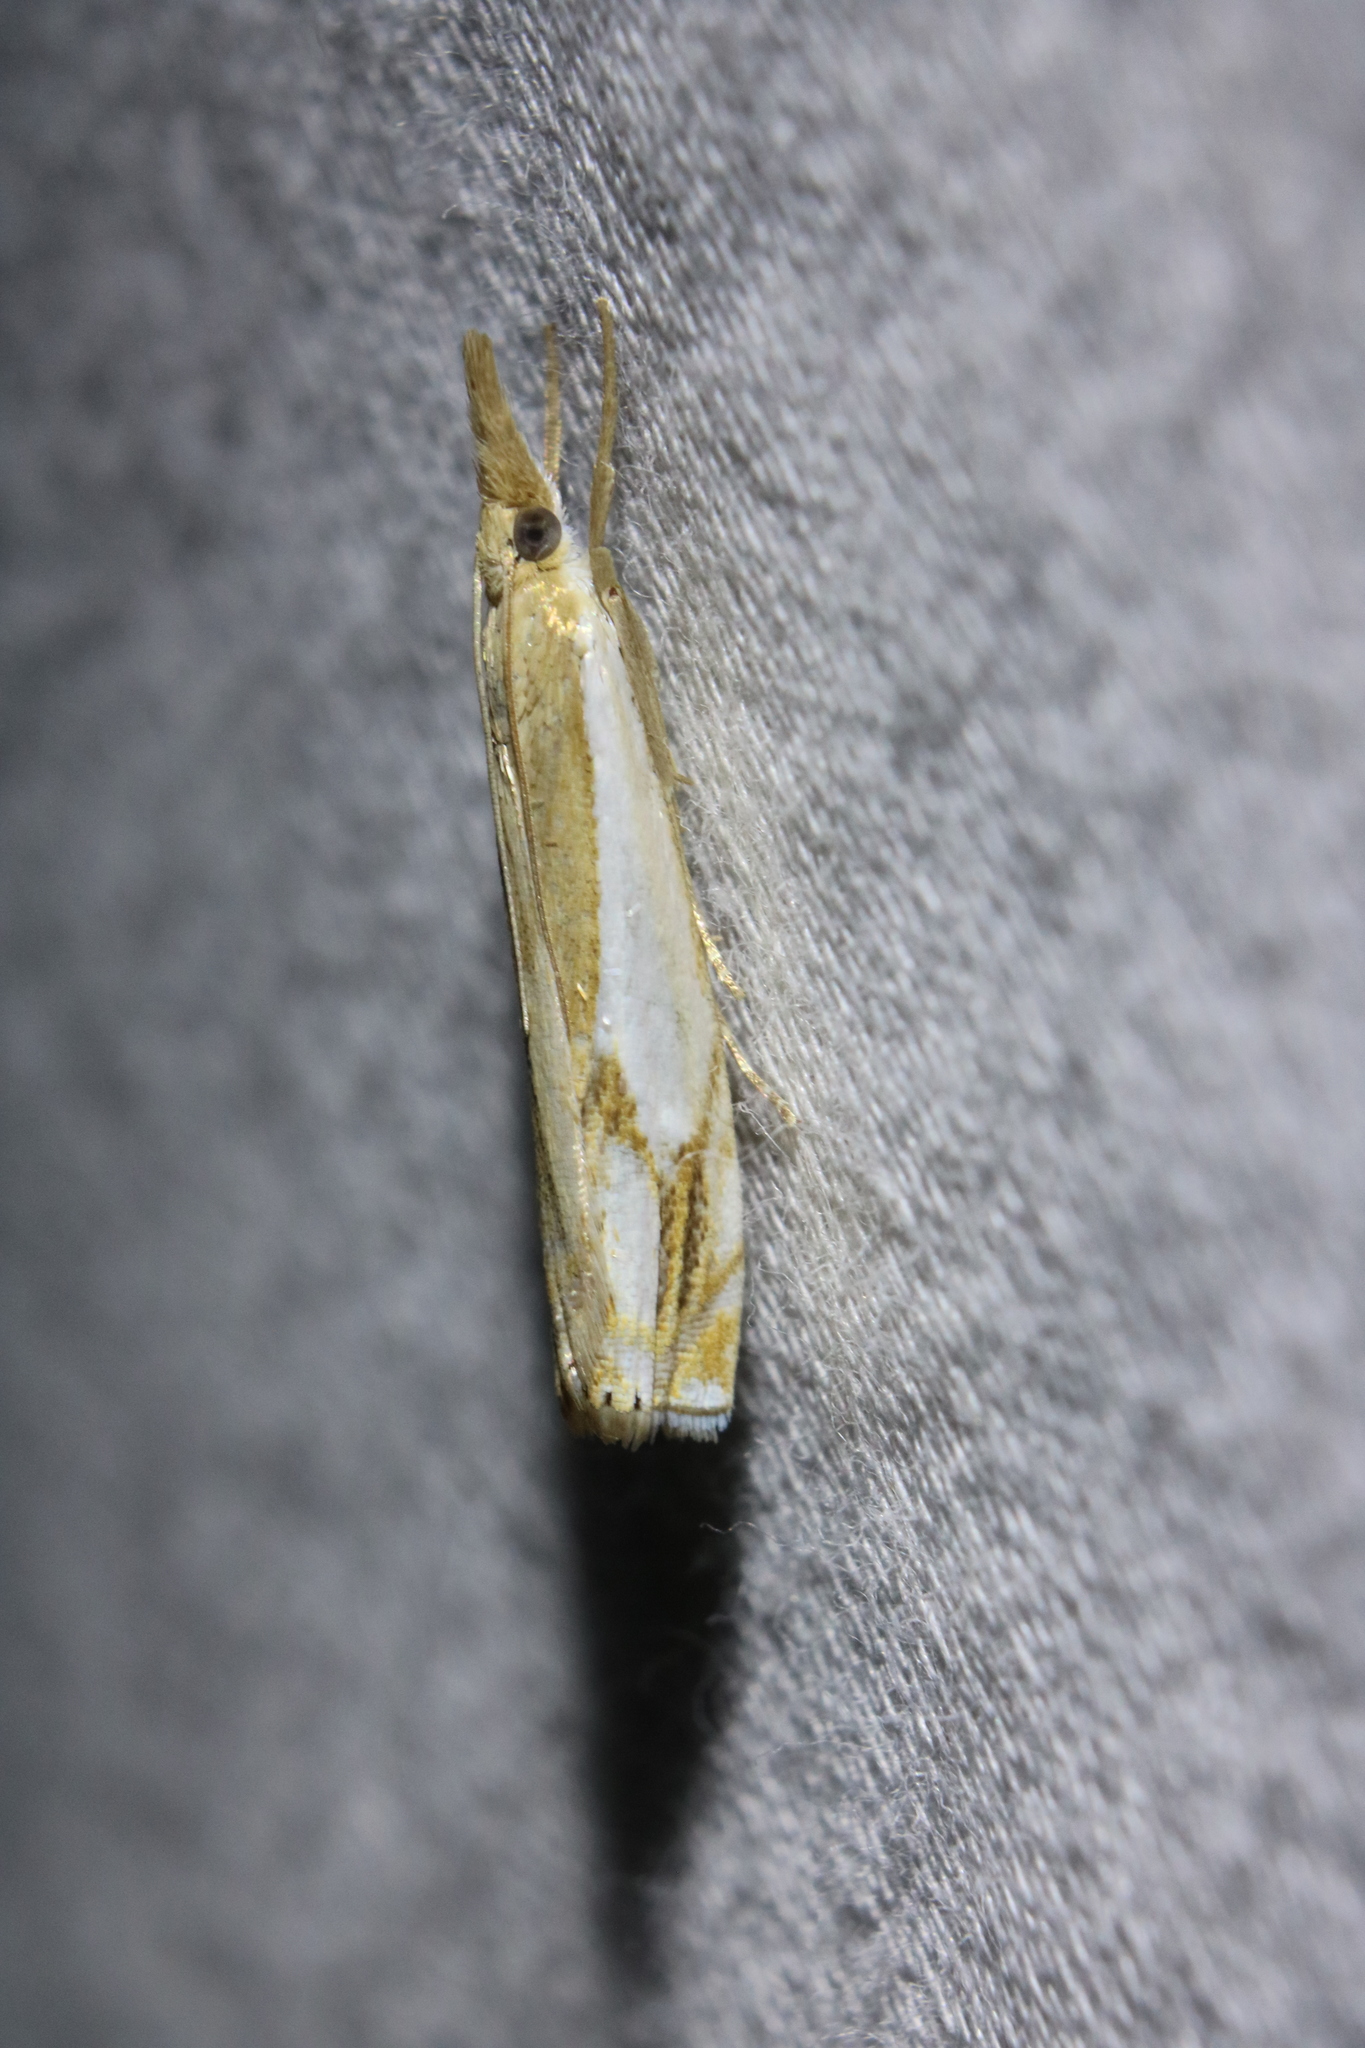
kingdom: Animalia
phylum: Arthropoda
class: Insecta
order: Lepidoptera
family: Crambidae
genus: Crambus
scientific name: Crambus agitatellus
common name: Double-banded grass-veneer
